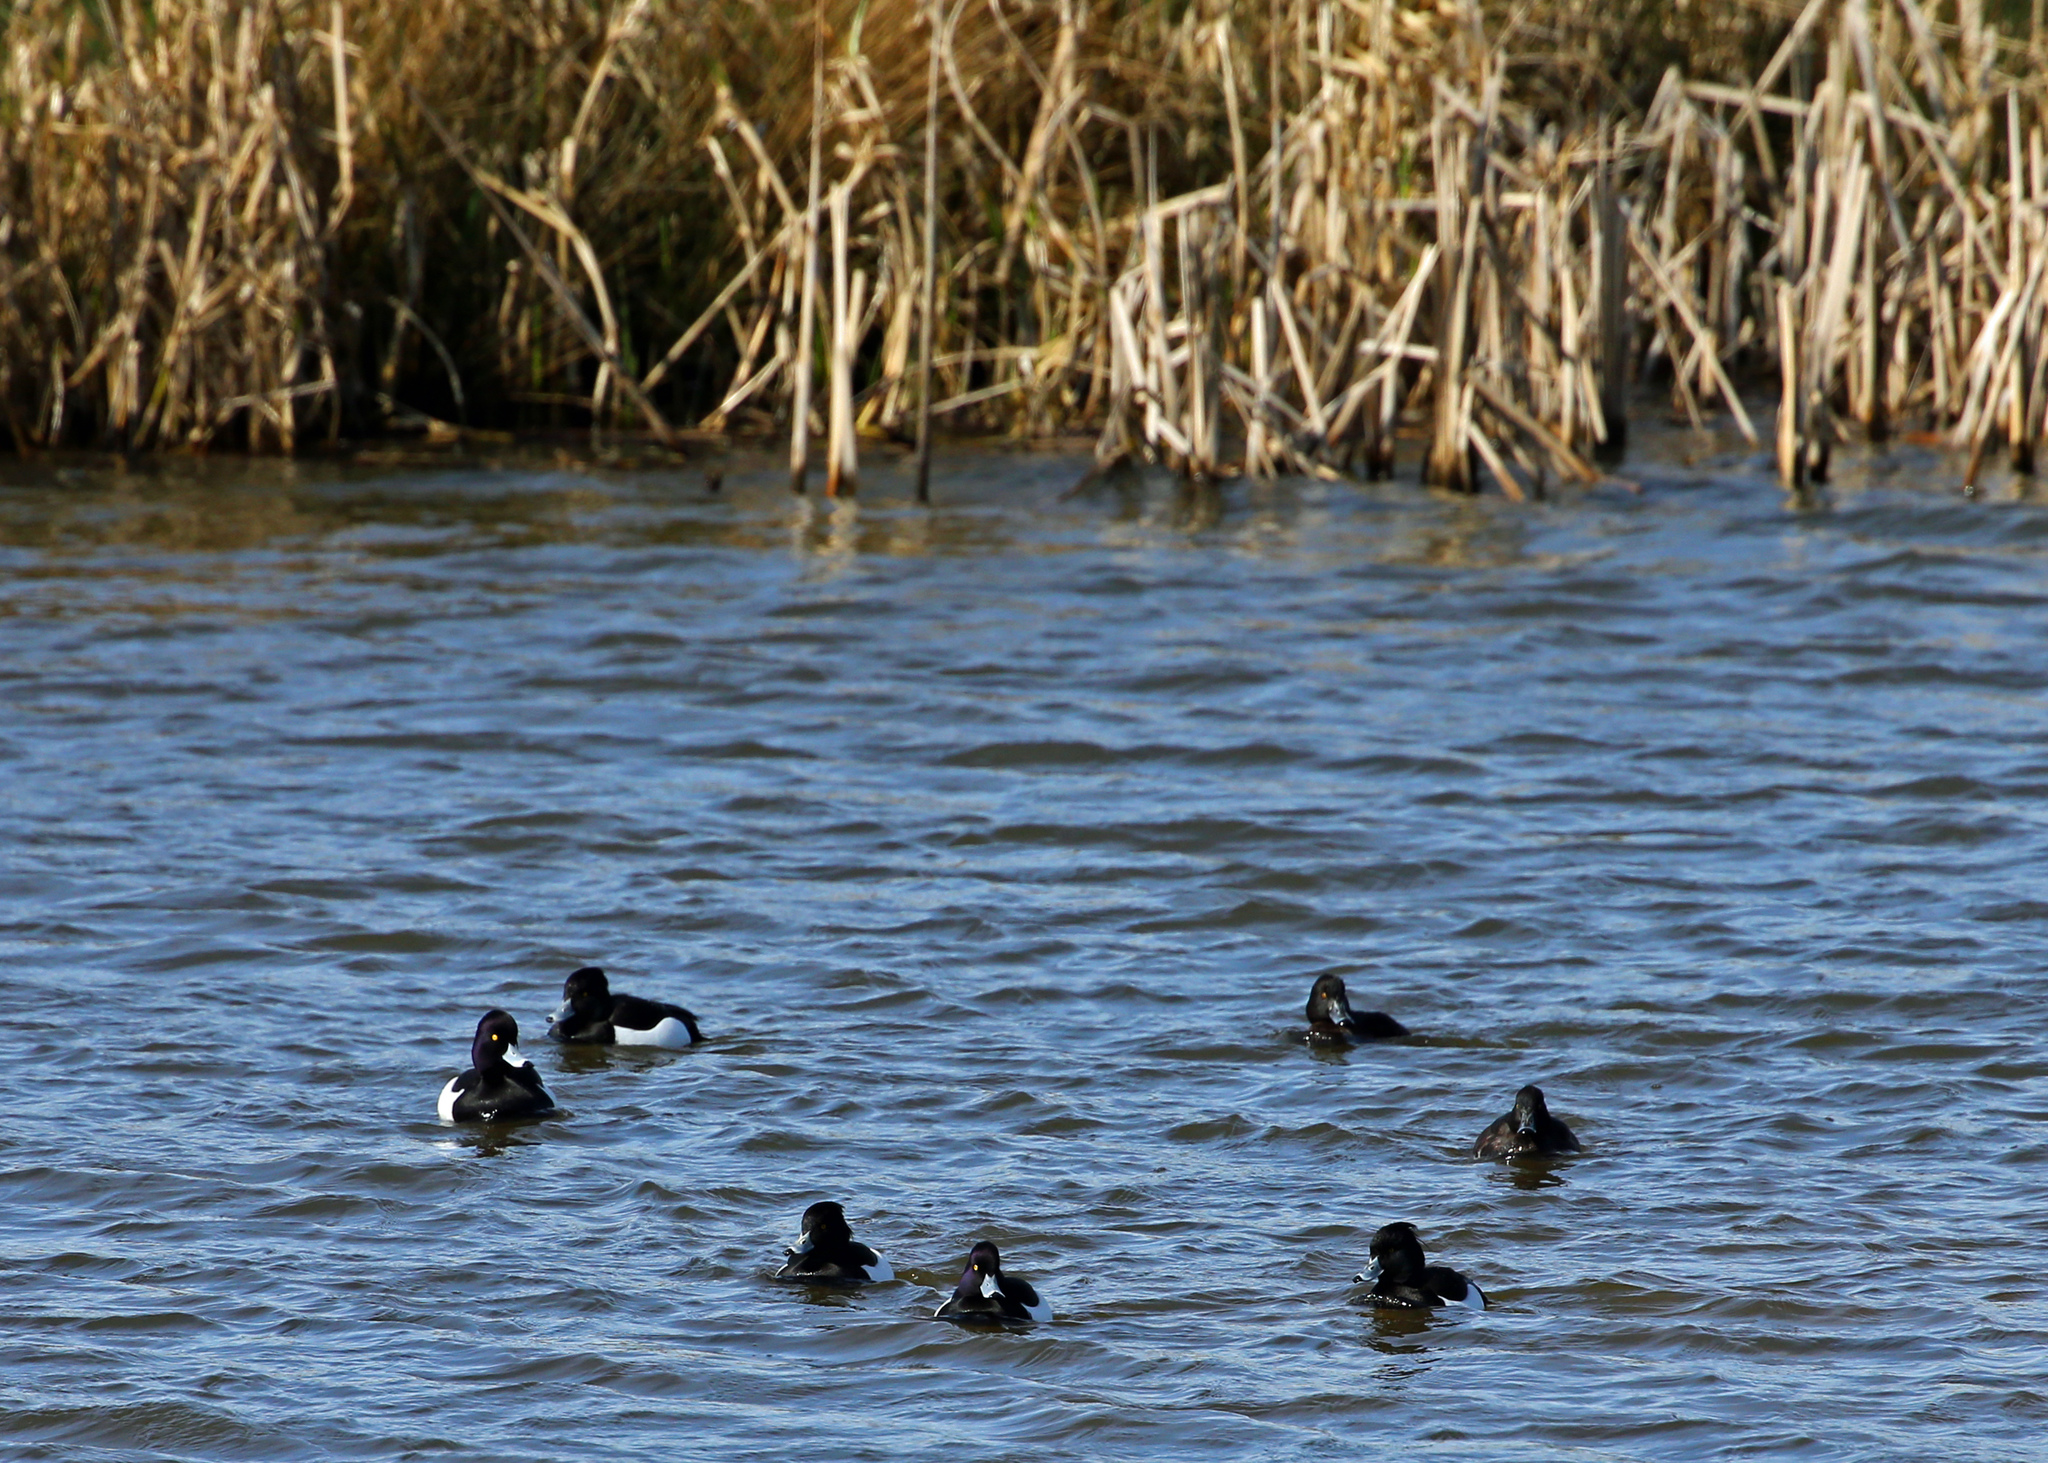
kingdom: Animalia
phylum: Chordata
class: Aves
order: Anseriformes
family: Anatidae
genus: Aythya
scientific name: Aythya fuligula
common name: Tufted duck
